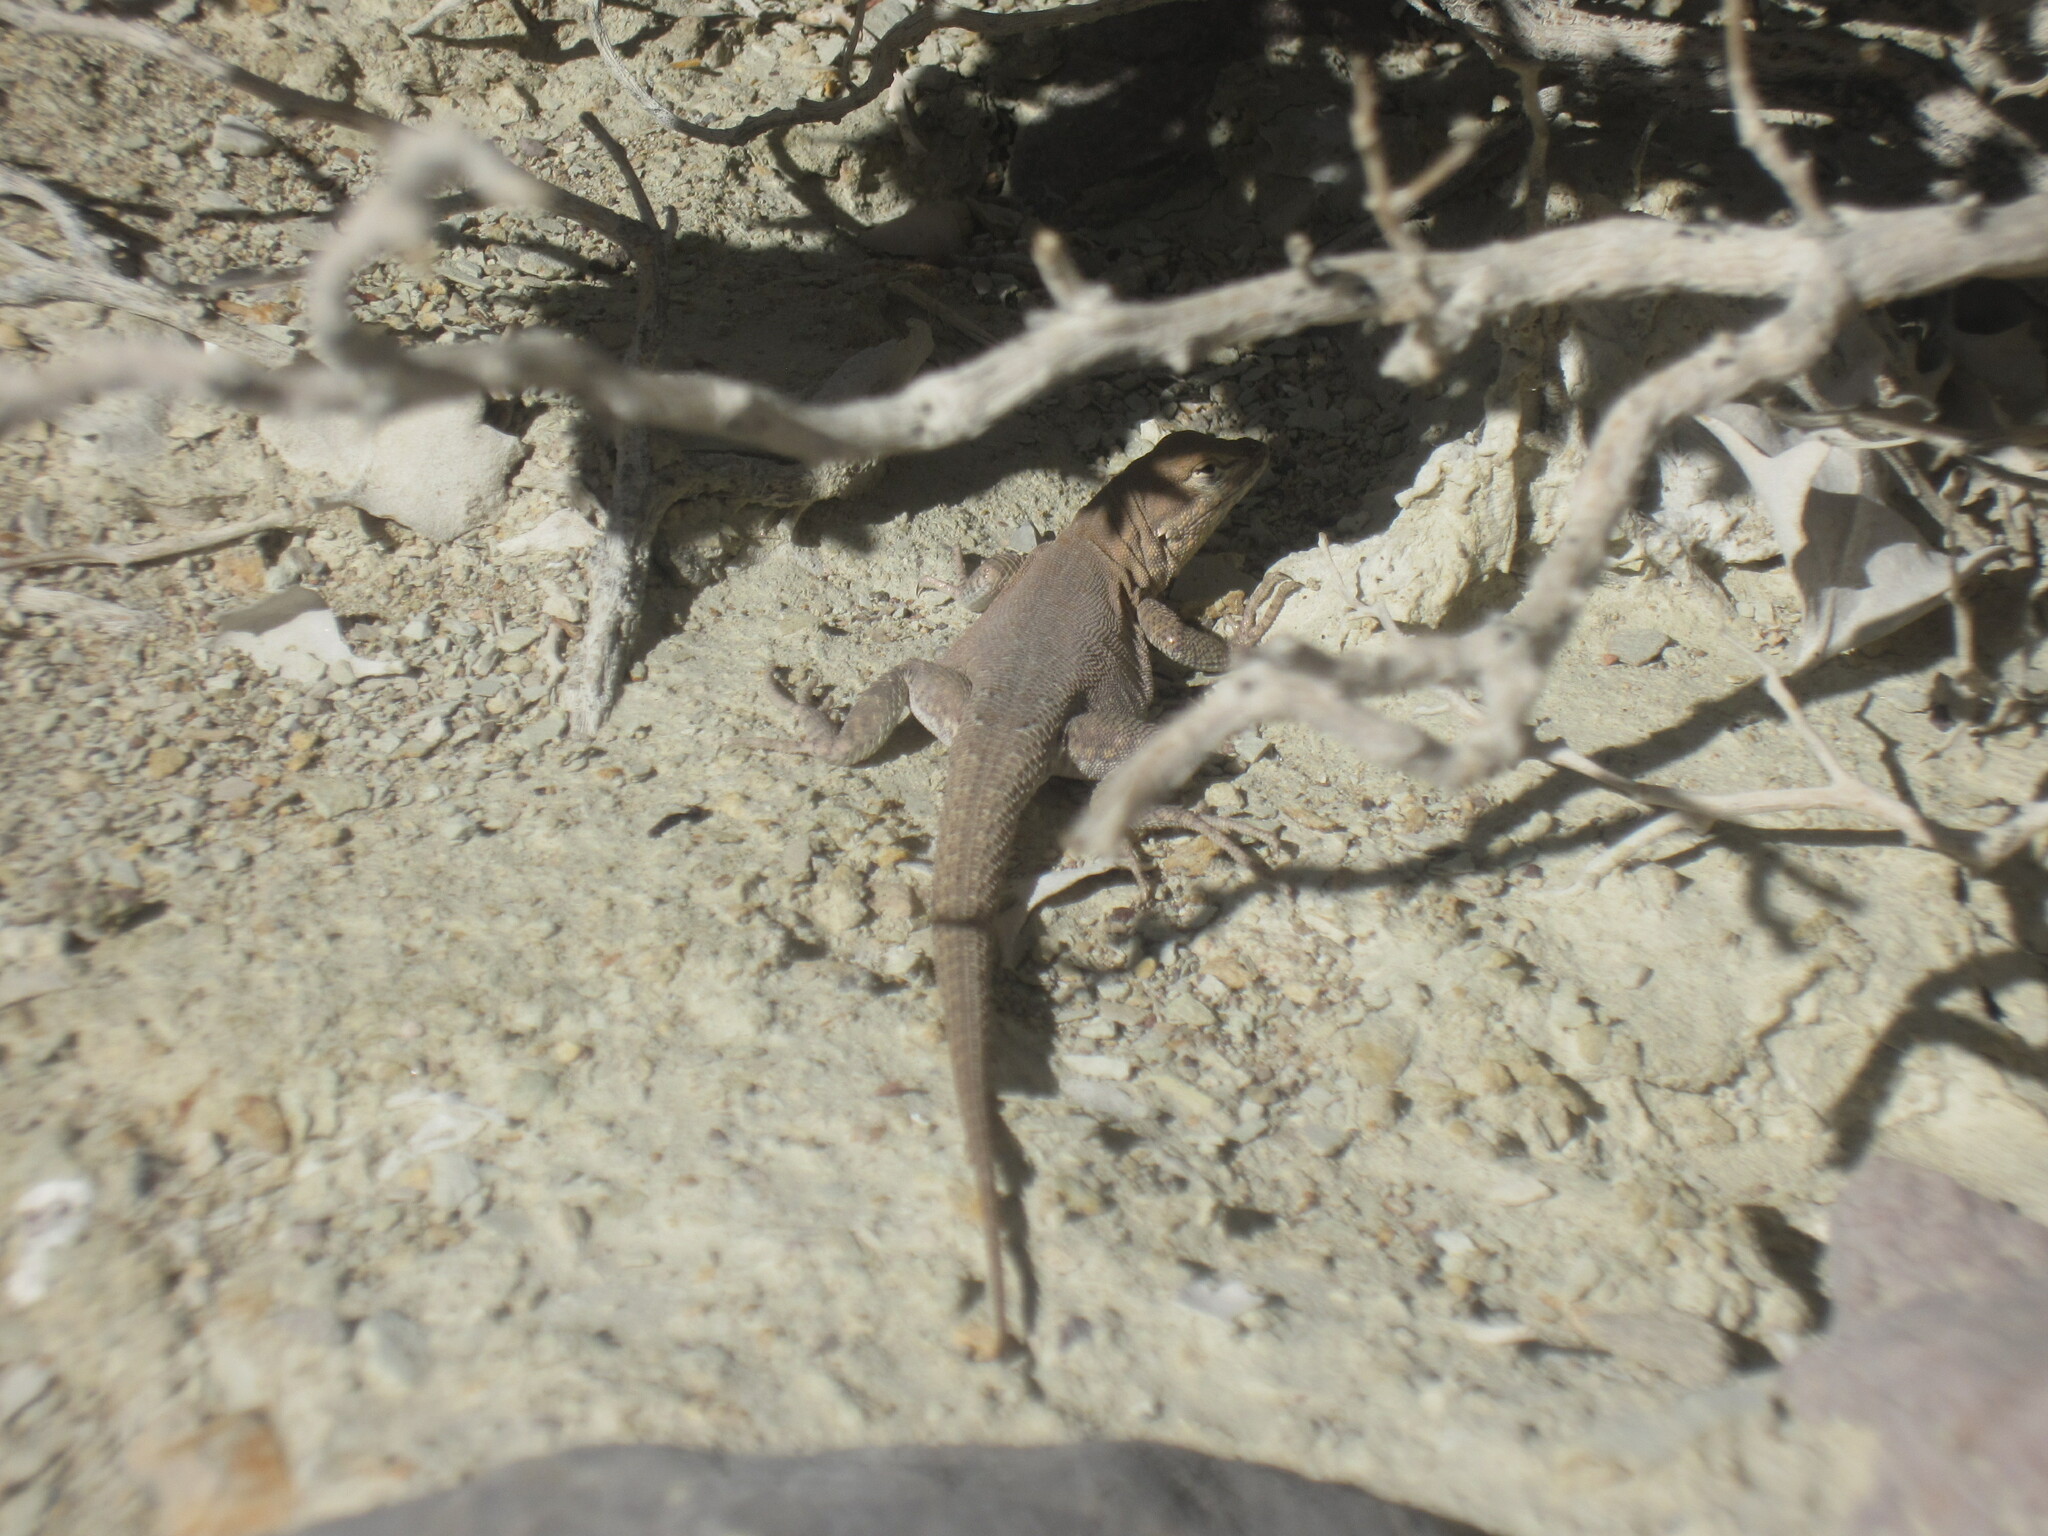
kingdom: Animalia
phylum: Chordata
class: Squamata
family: Phrynosomatidae
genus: Uta
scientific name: Uta stansburiana
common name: Side-blotched lizard
